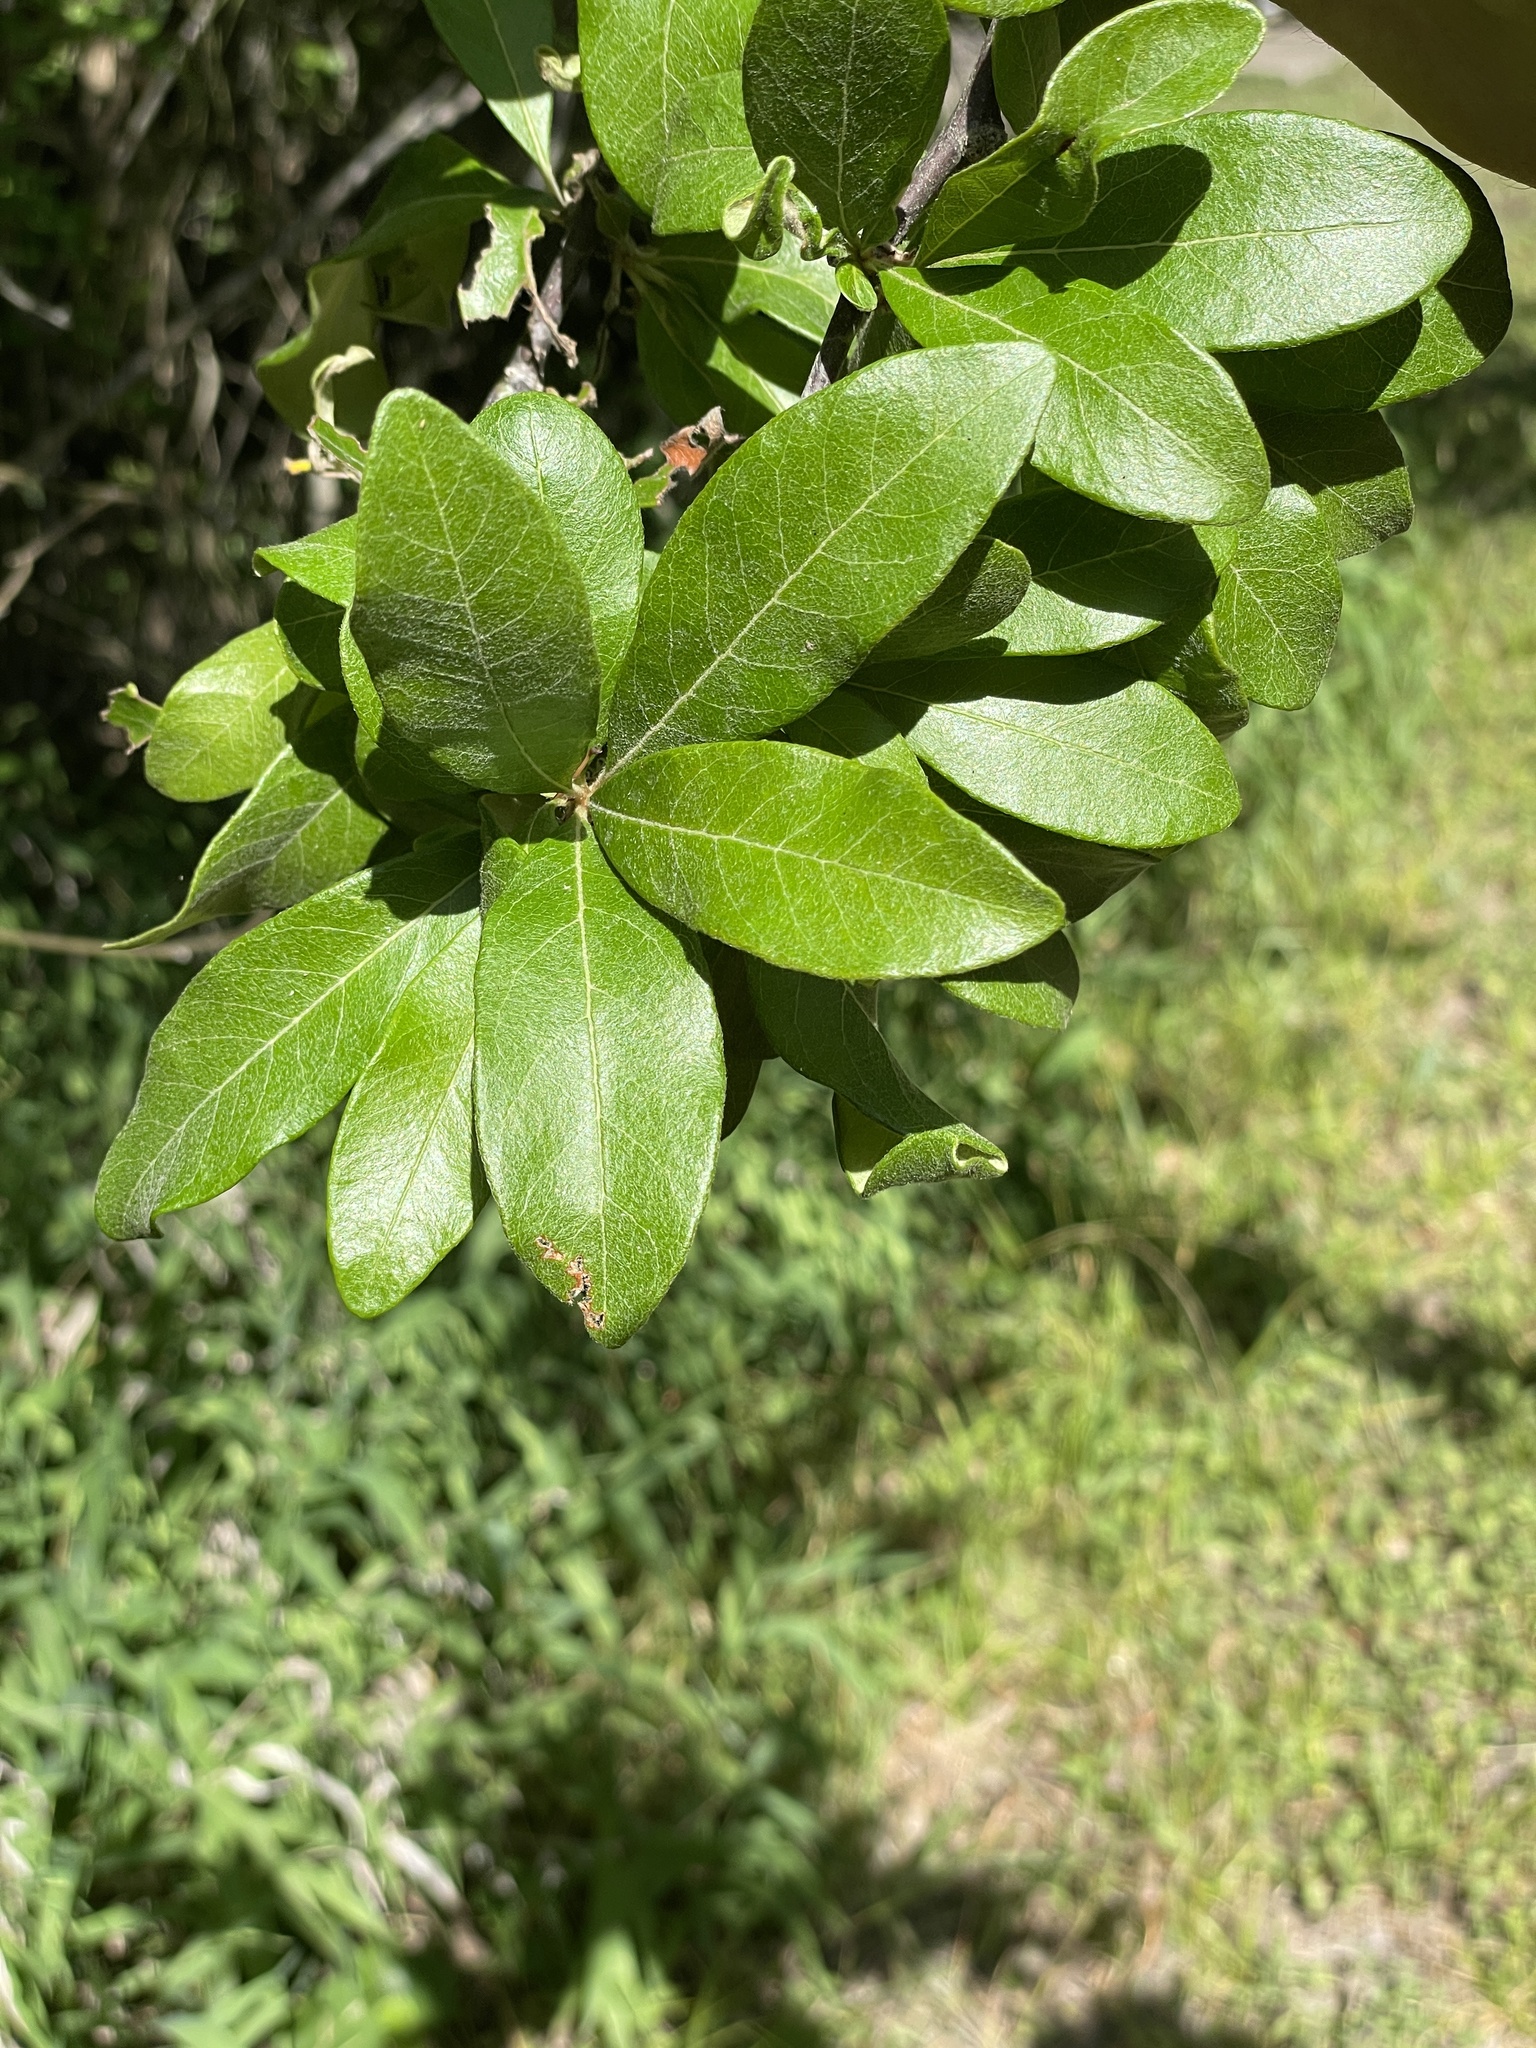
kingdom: Plantae
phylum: Tracheophyta
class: Magnoliopsida
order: Ericales
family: Sapotaceae
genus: Sideroxylon
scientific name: Sideroxylon lanuginosum
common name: Chittamwood
